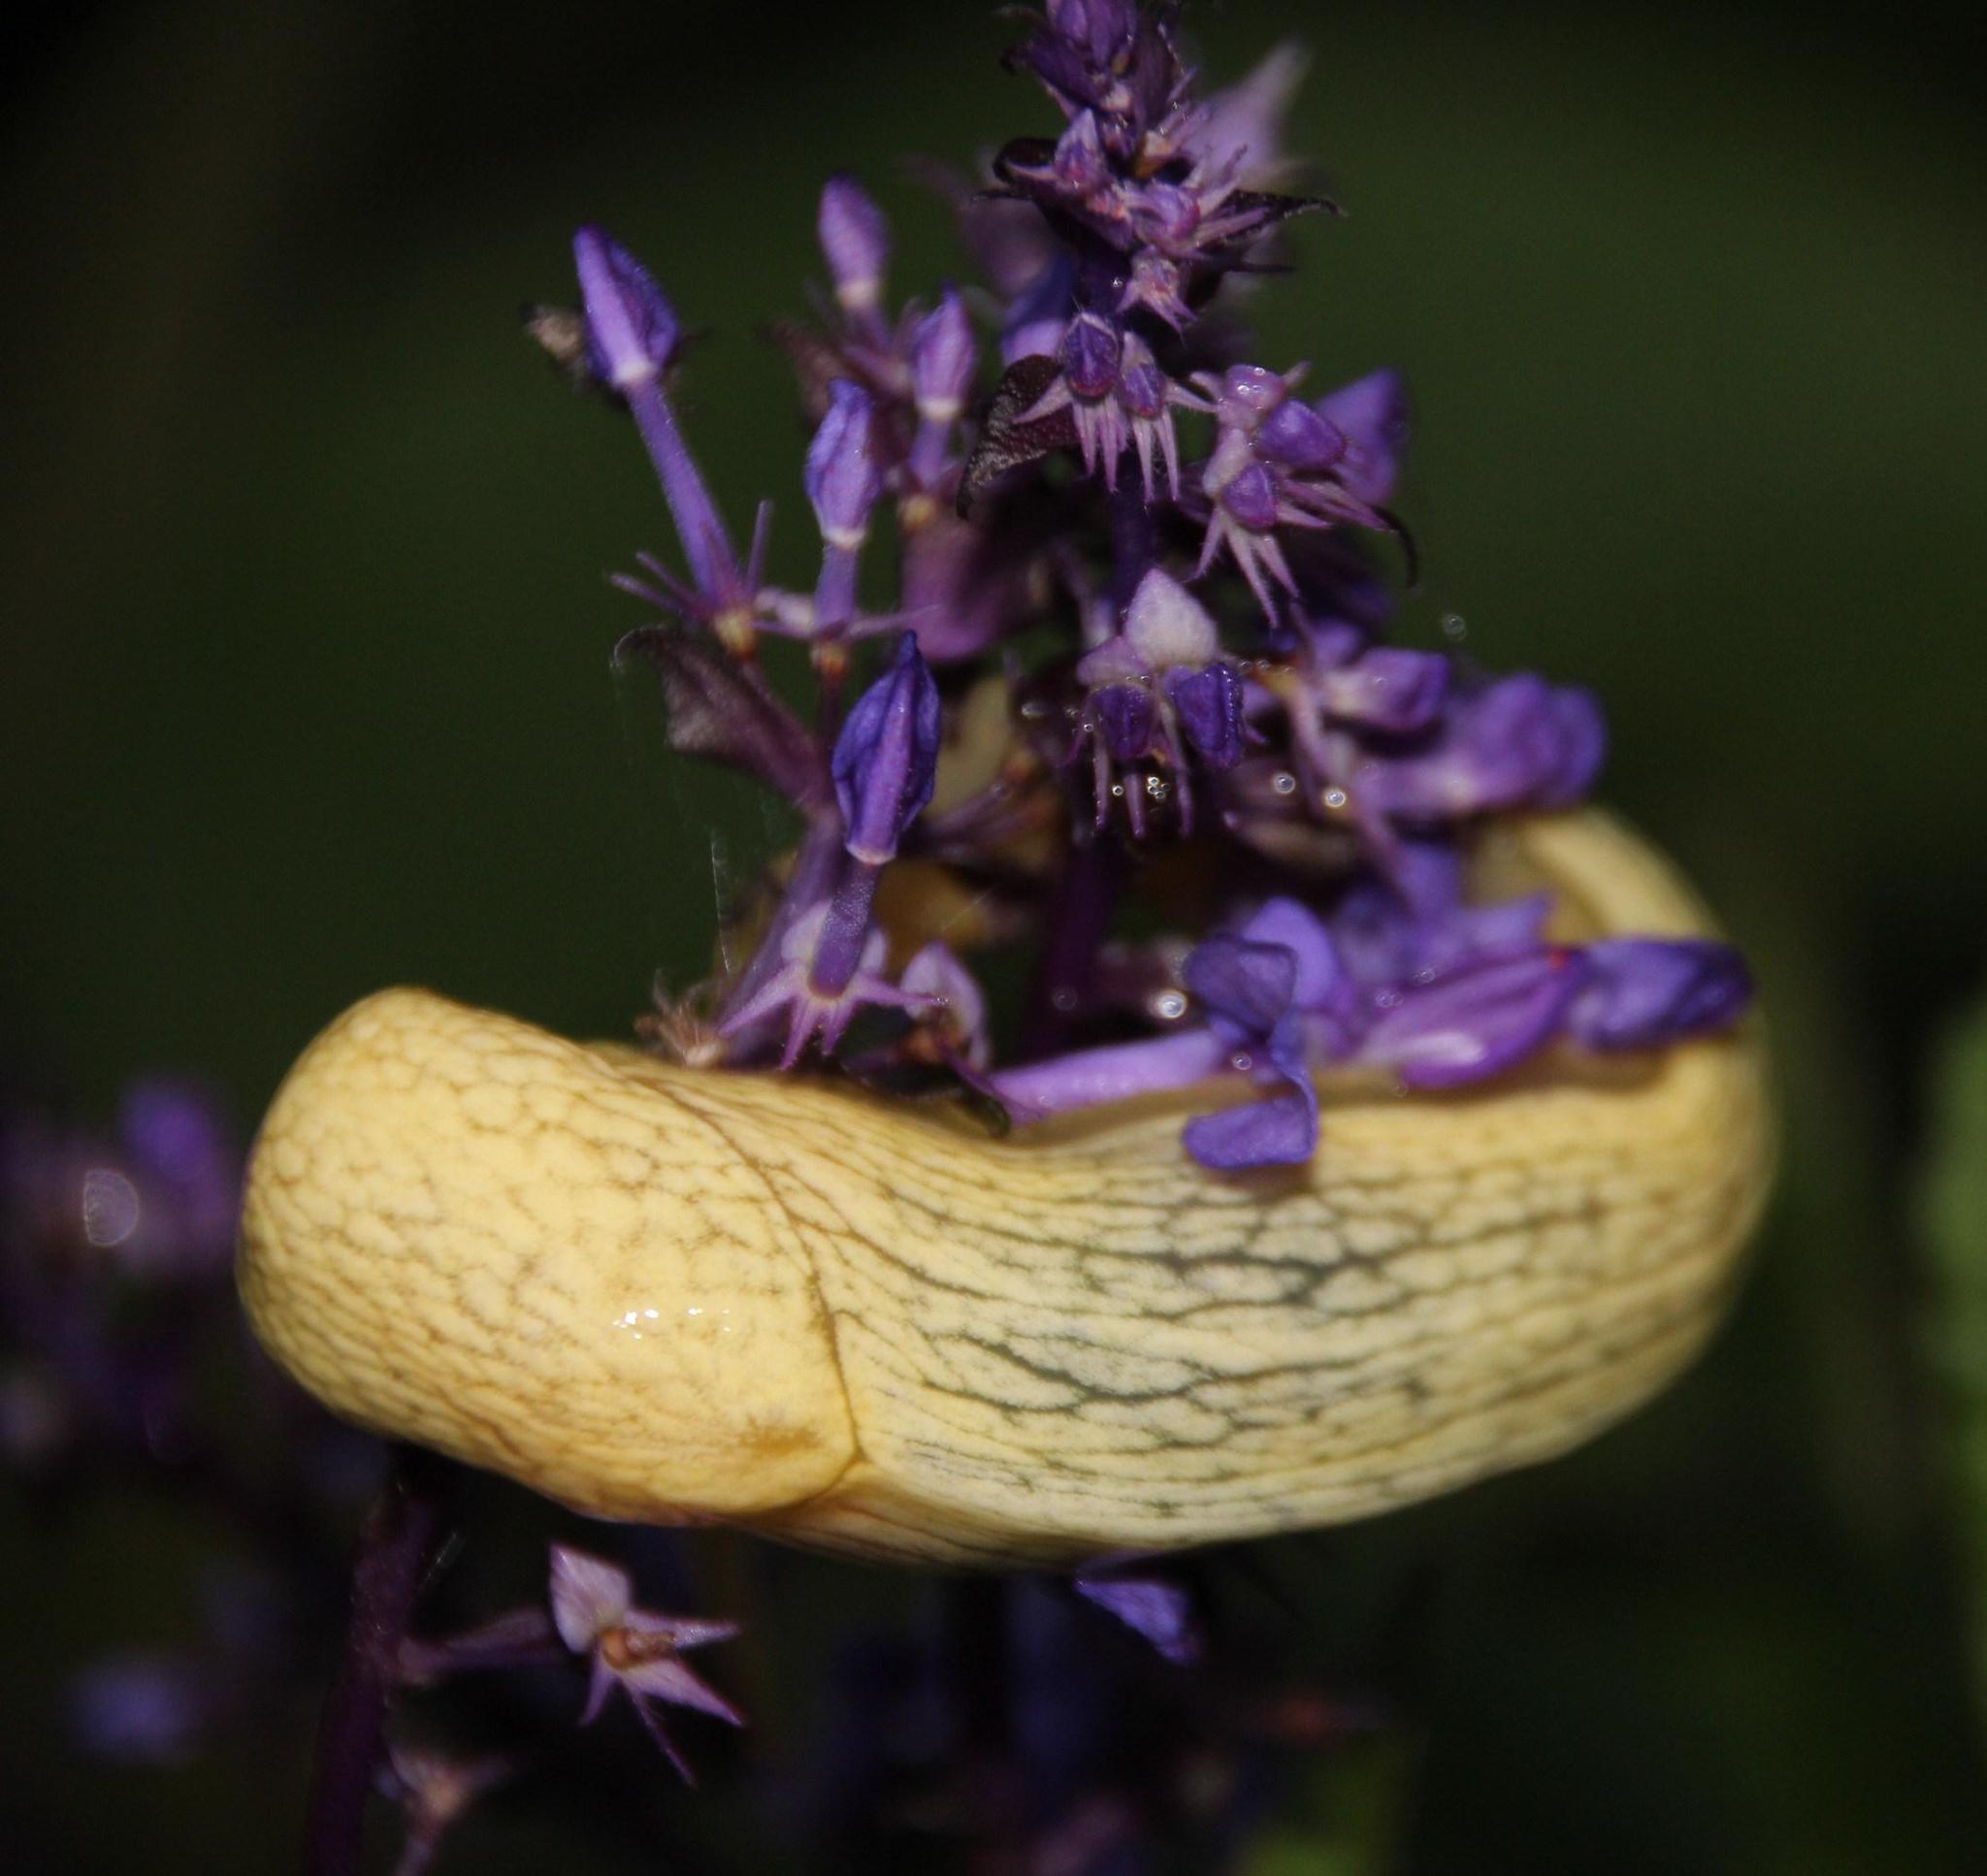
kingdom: Animalia
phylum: Mollusca
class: Gastropoda
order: Stylommatophora
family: Urocyclidae
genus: Elisolimax
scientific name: Elisolimax flavescens
